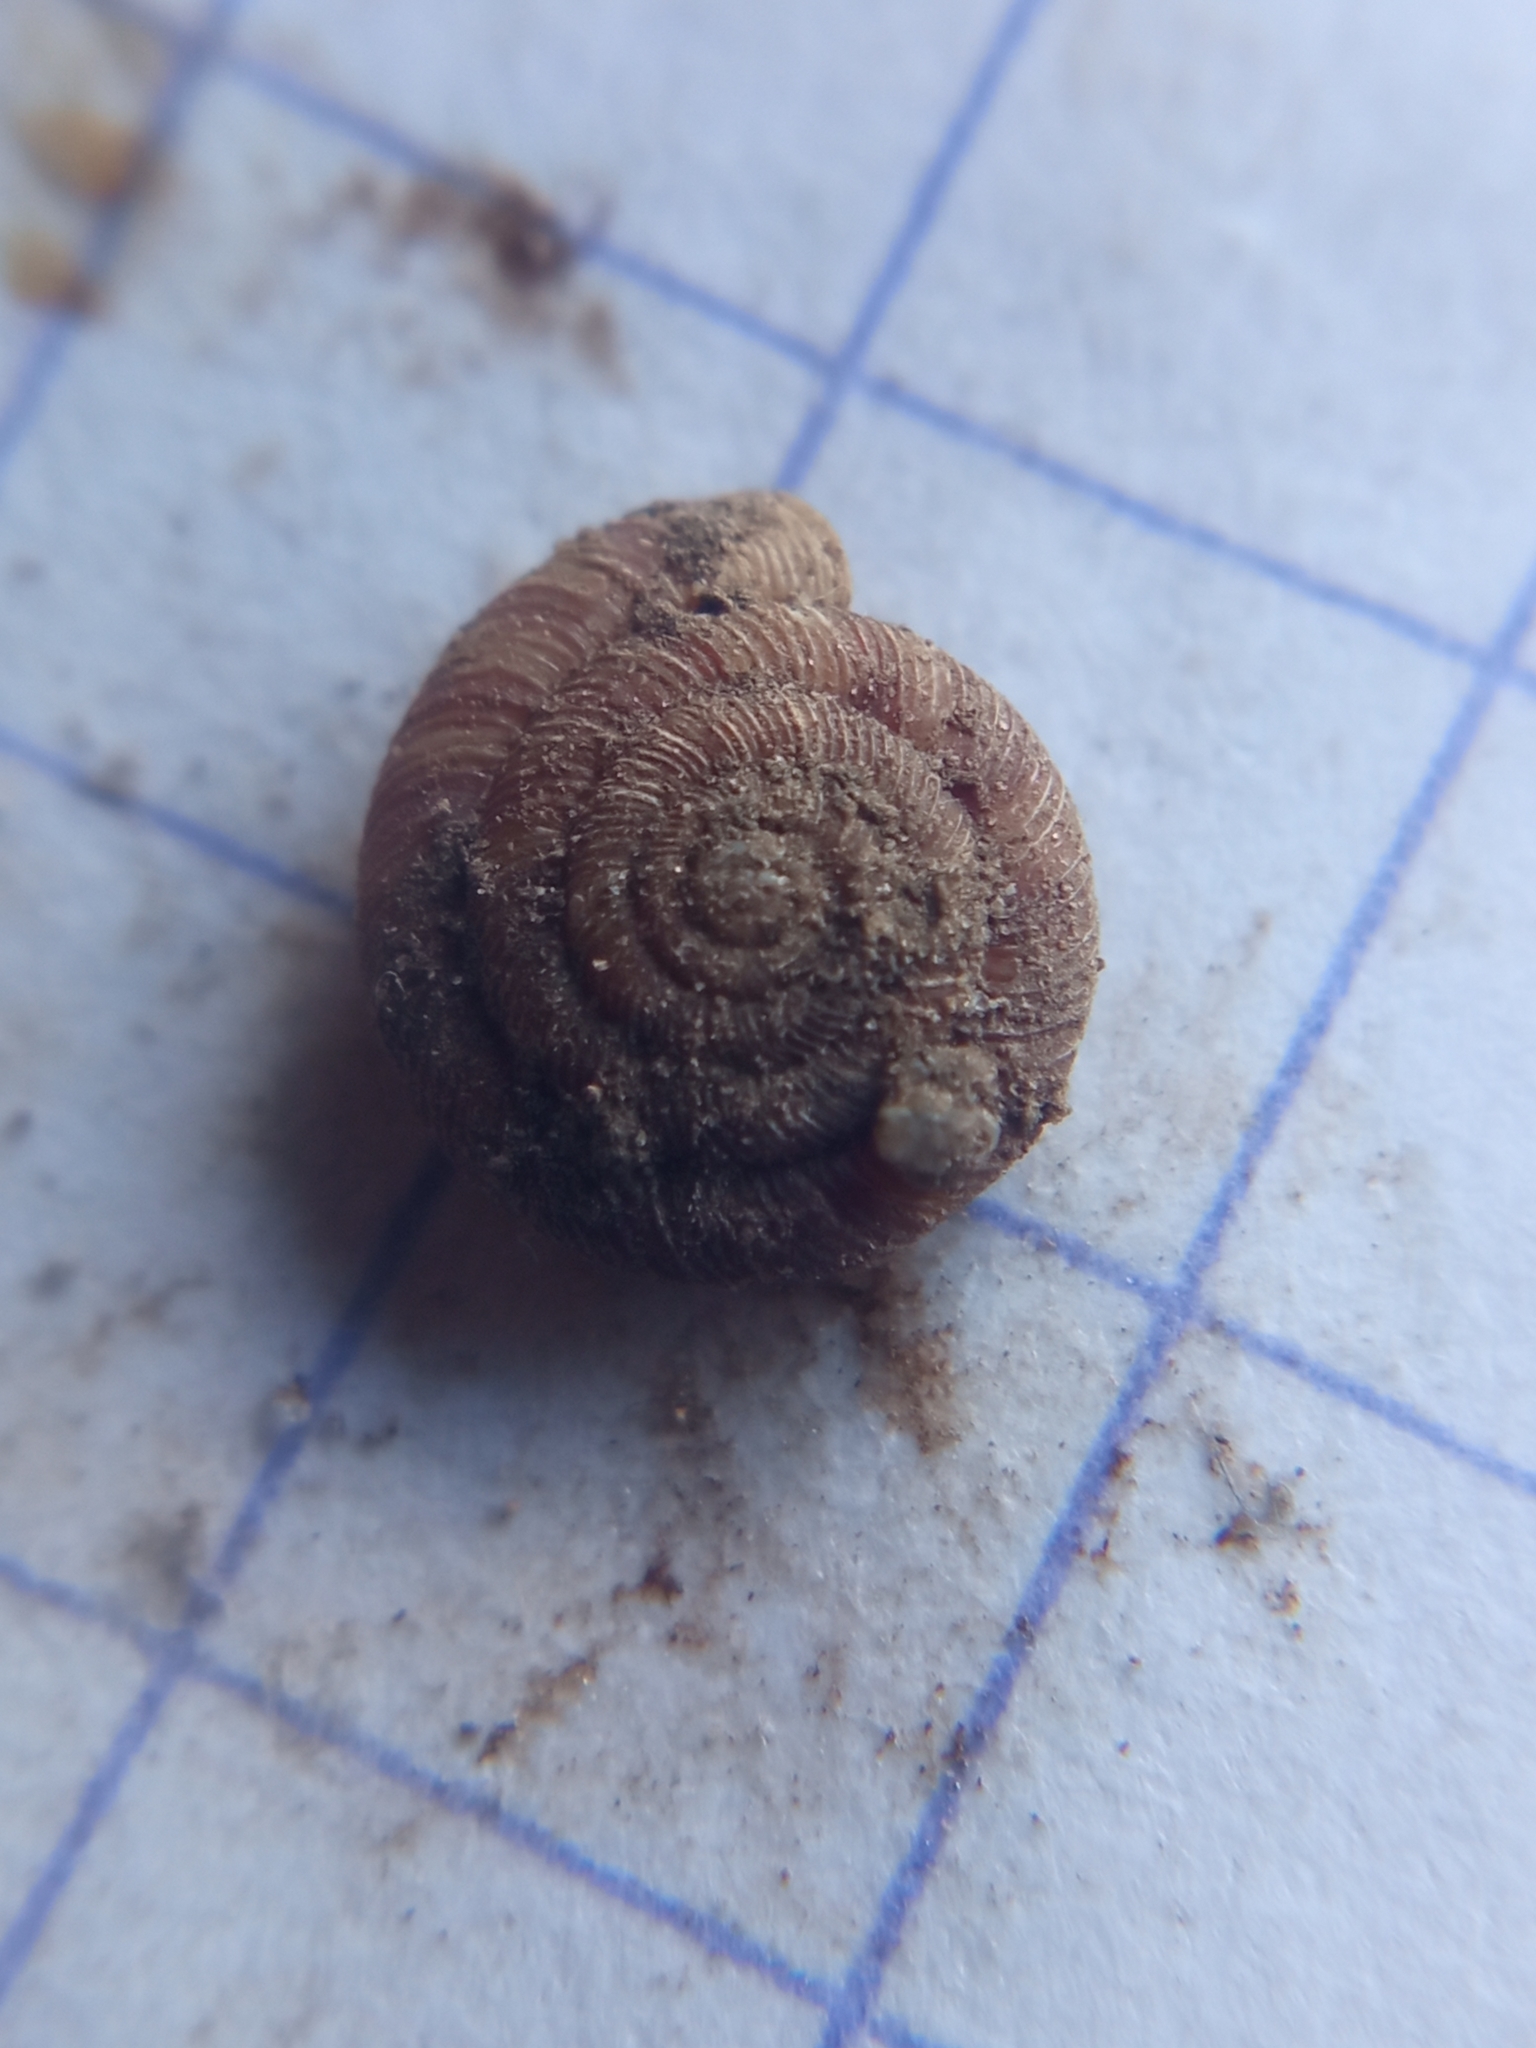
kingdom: Animalia
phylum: Mollusca
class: Gastropoda
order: Stylommatophora
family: Discidae
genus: Discus
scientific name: Discus rotundatus
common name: Rounded snail
